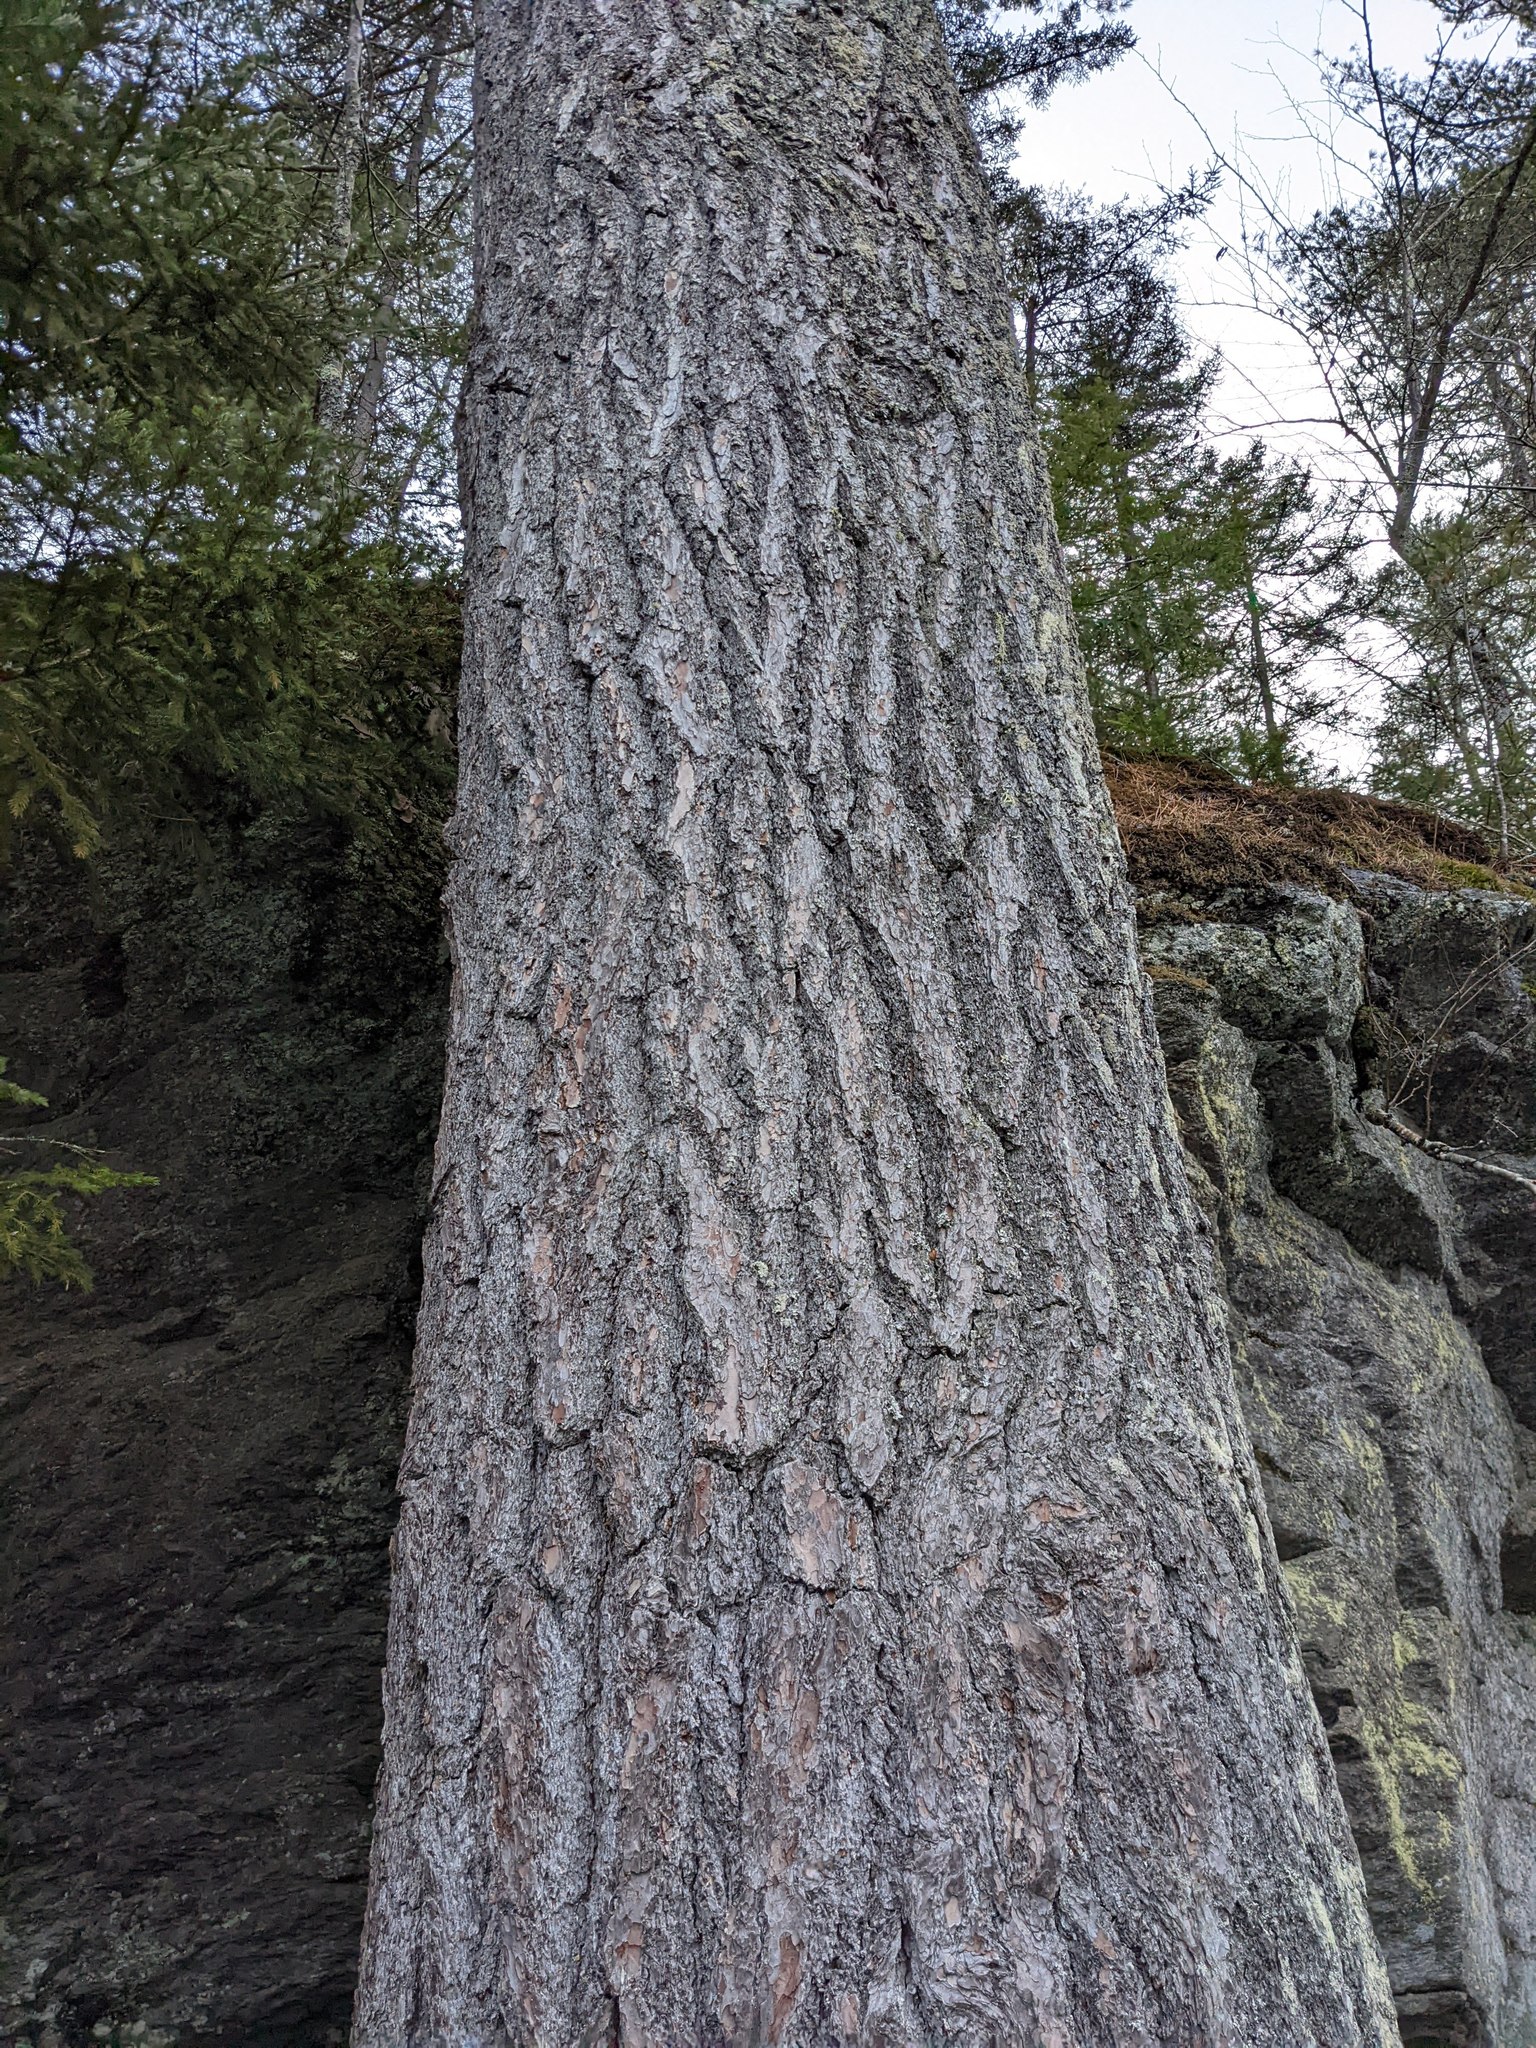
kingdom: Plantae
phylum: Tracheophyta
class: Pinopsida
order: Pinales
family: Pinaceae
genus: Pinus
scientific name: Pinus strobus
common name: Weymouth pine
